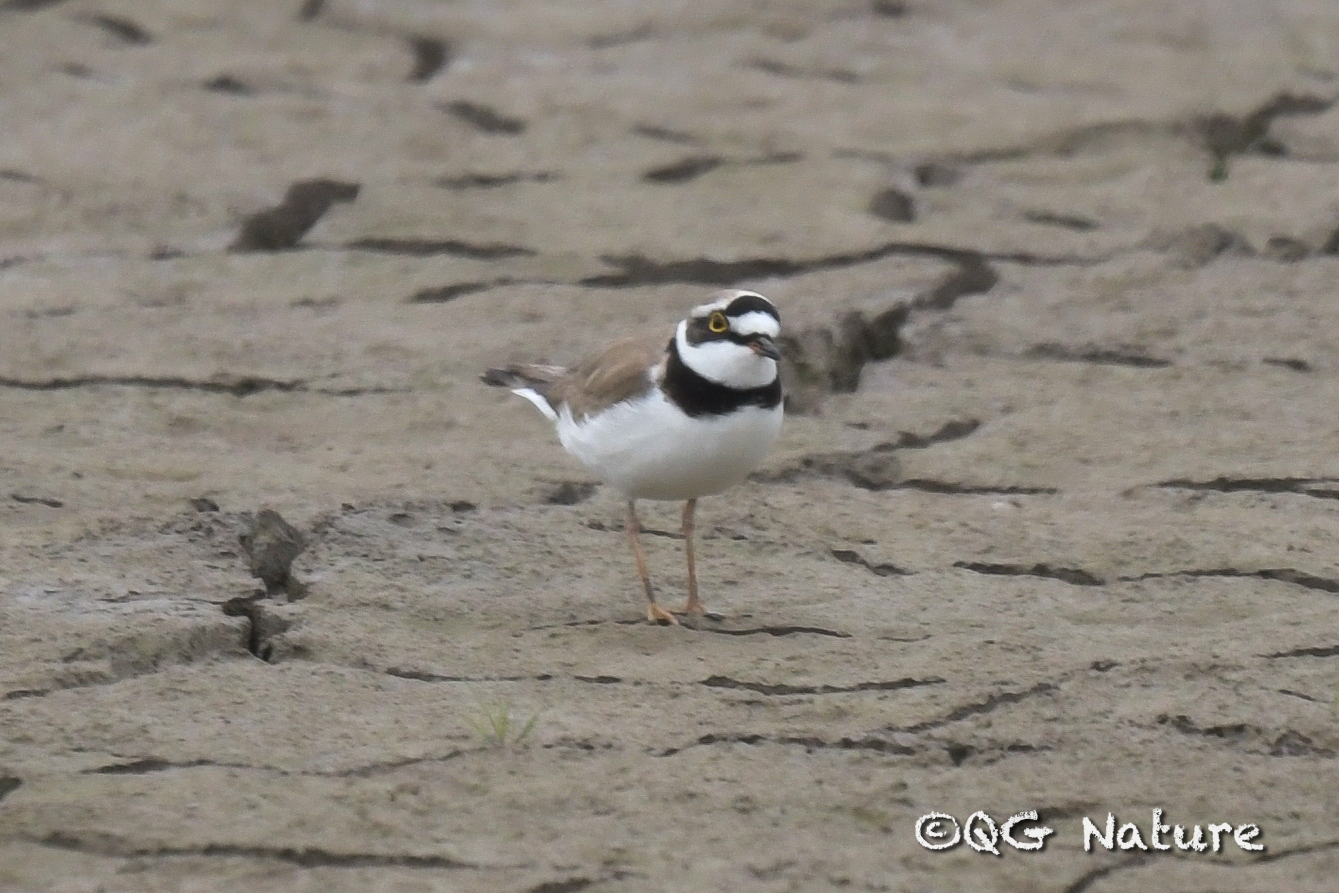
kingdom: Animalia
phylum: Chordata
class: Aves
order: Charadriiformes
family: Charadriidae
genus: Charadrius
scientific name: Charadrius dubius
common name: Little ringed plover
